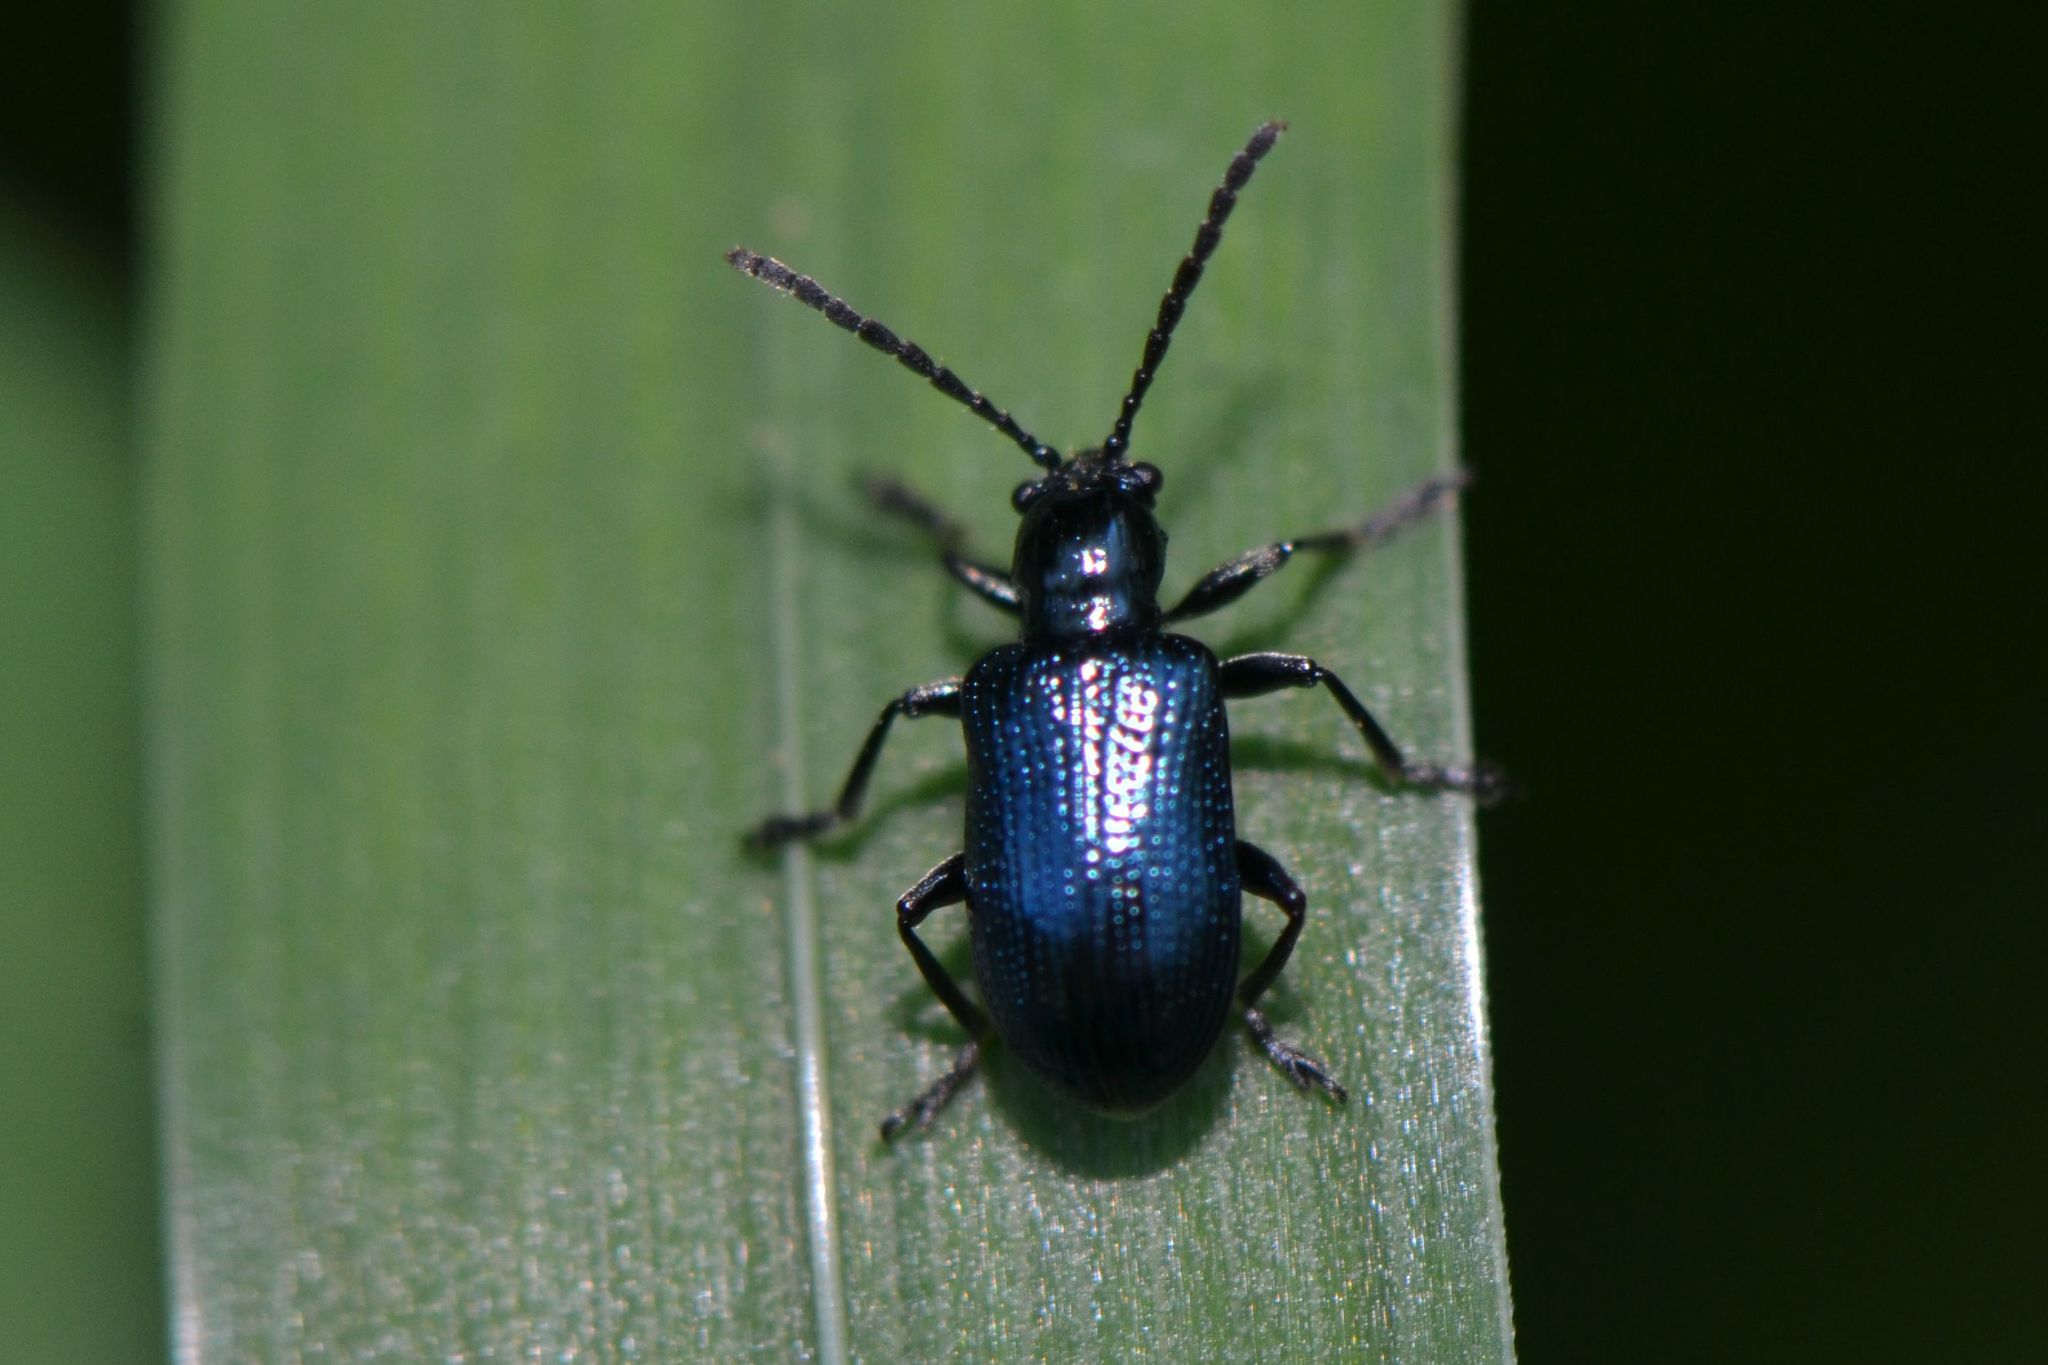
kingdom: Animalia
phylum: Arthropoda
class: Insecta
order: Coleoptera
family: Chrysomelidae
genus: Oulema
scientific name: Oulema gallaeciana
